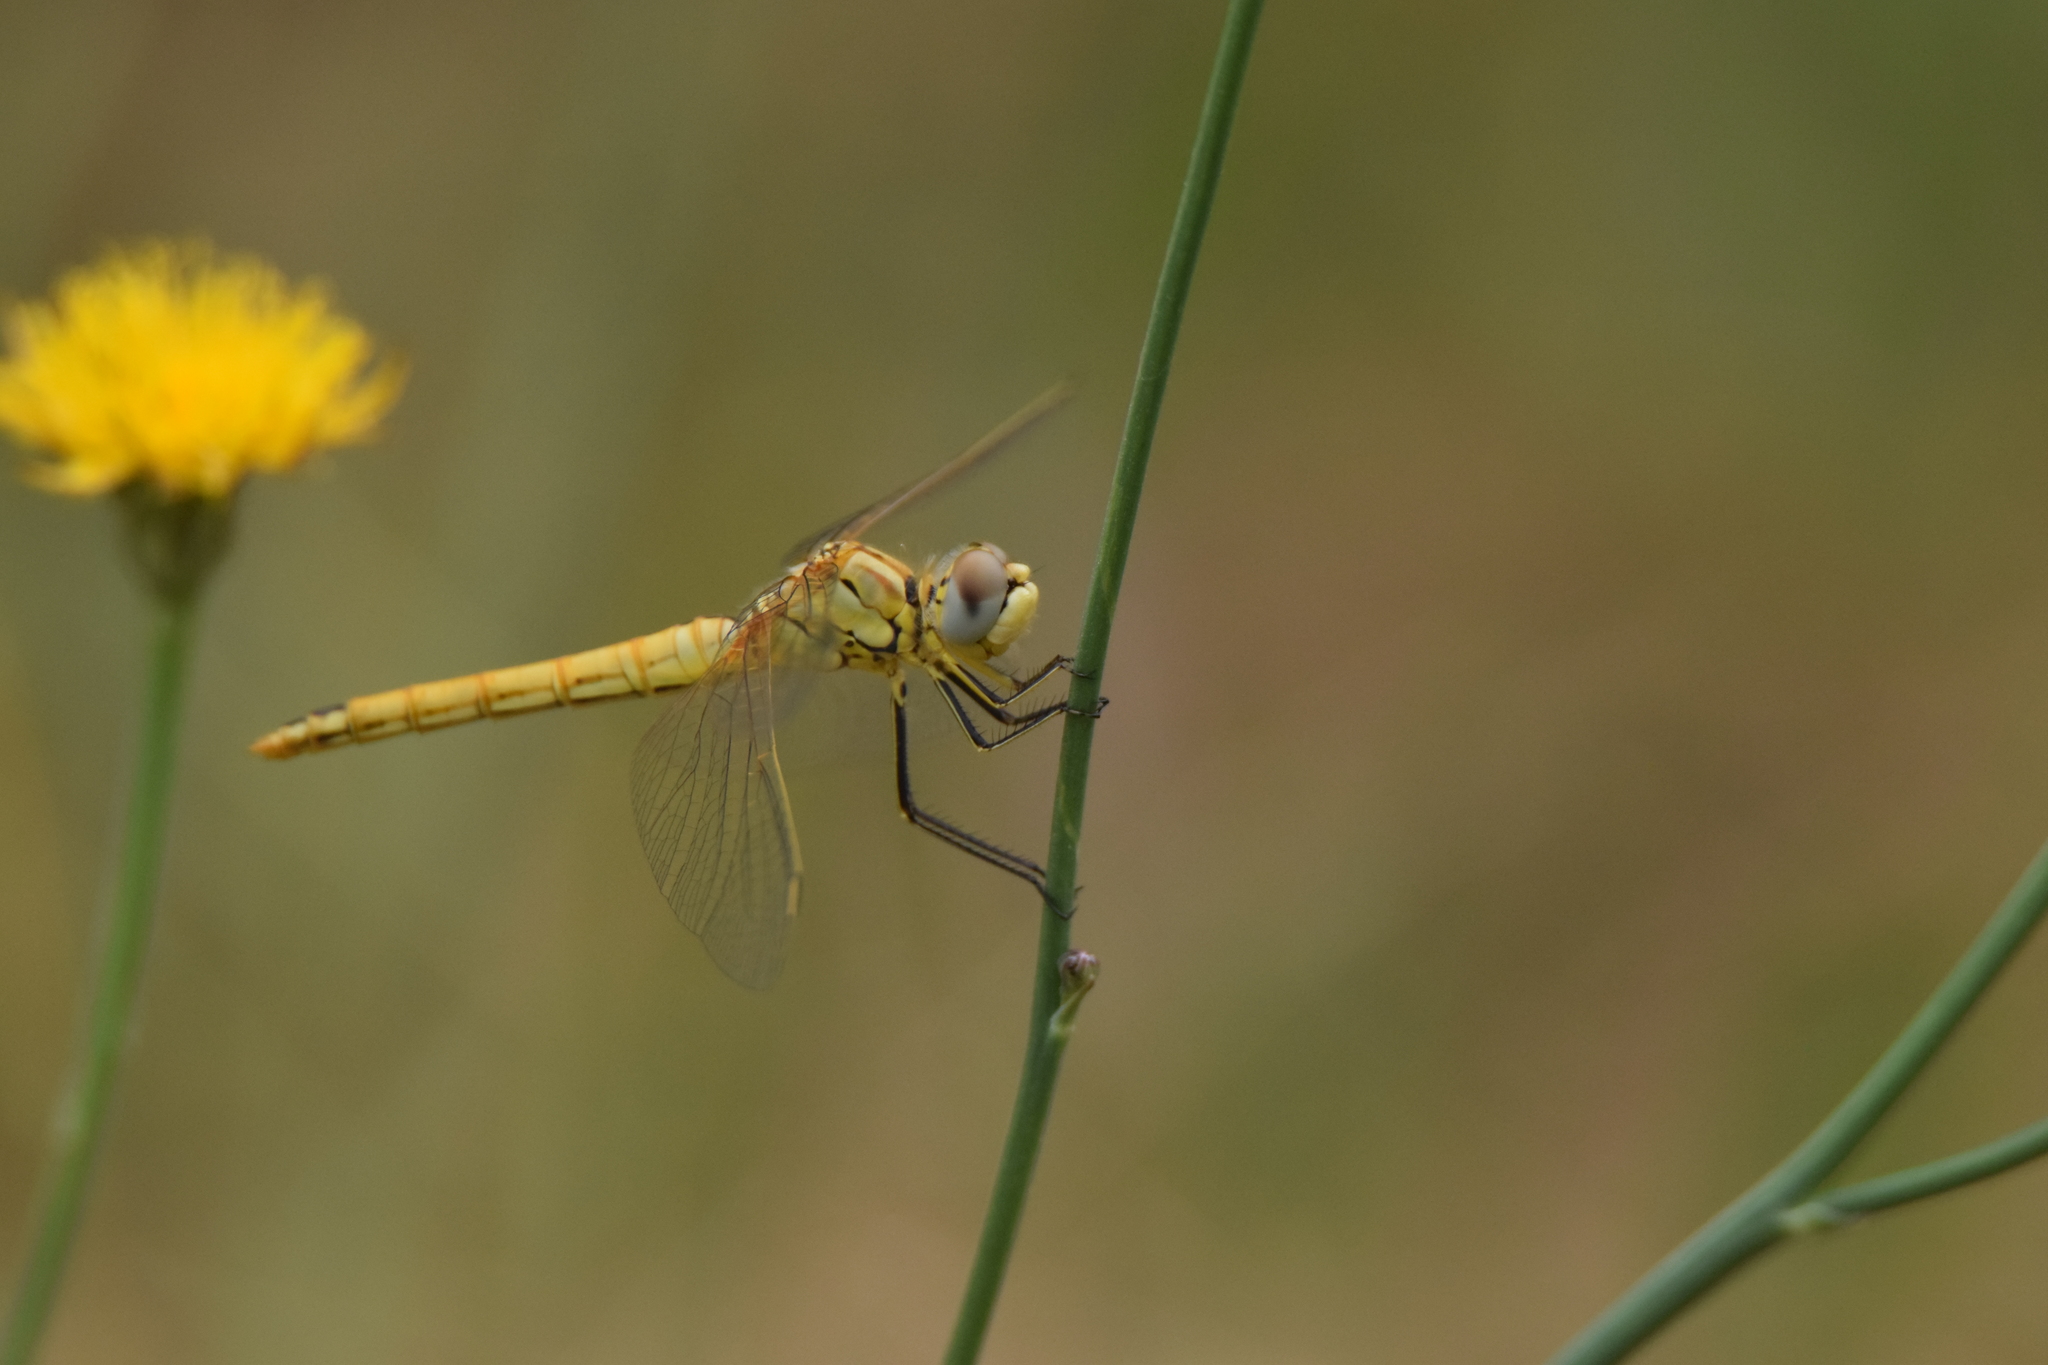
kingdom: Animalia
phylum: Arthropoda
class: Insecta
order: Odonata
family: Libellulidae
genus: Sympetrum
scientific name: Sympetrum fonscolombii
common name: Red-veined darter
